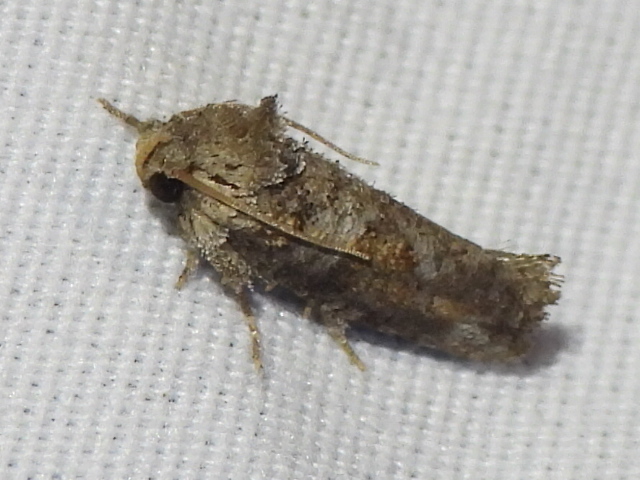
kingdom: Animalia
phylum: Arthropoda
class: Insecta
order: Lepidoptera
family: Tineidae
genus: Acrolophus
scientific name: Acrolophus piger
